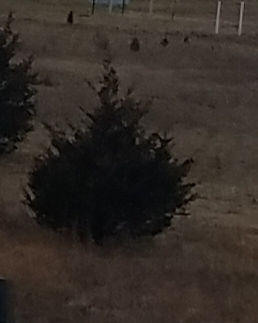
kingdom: Plantae
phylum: Tracheophyta
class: Pinopsida
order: Pinales
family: Cupressaceae
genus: Juniperus
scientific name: Juniperus virginiana
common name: Red juniper
